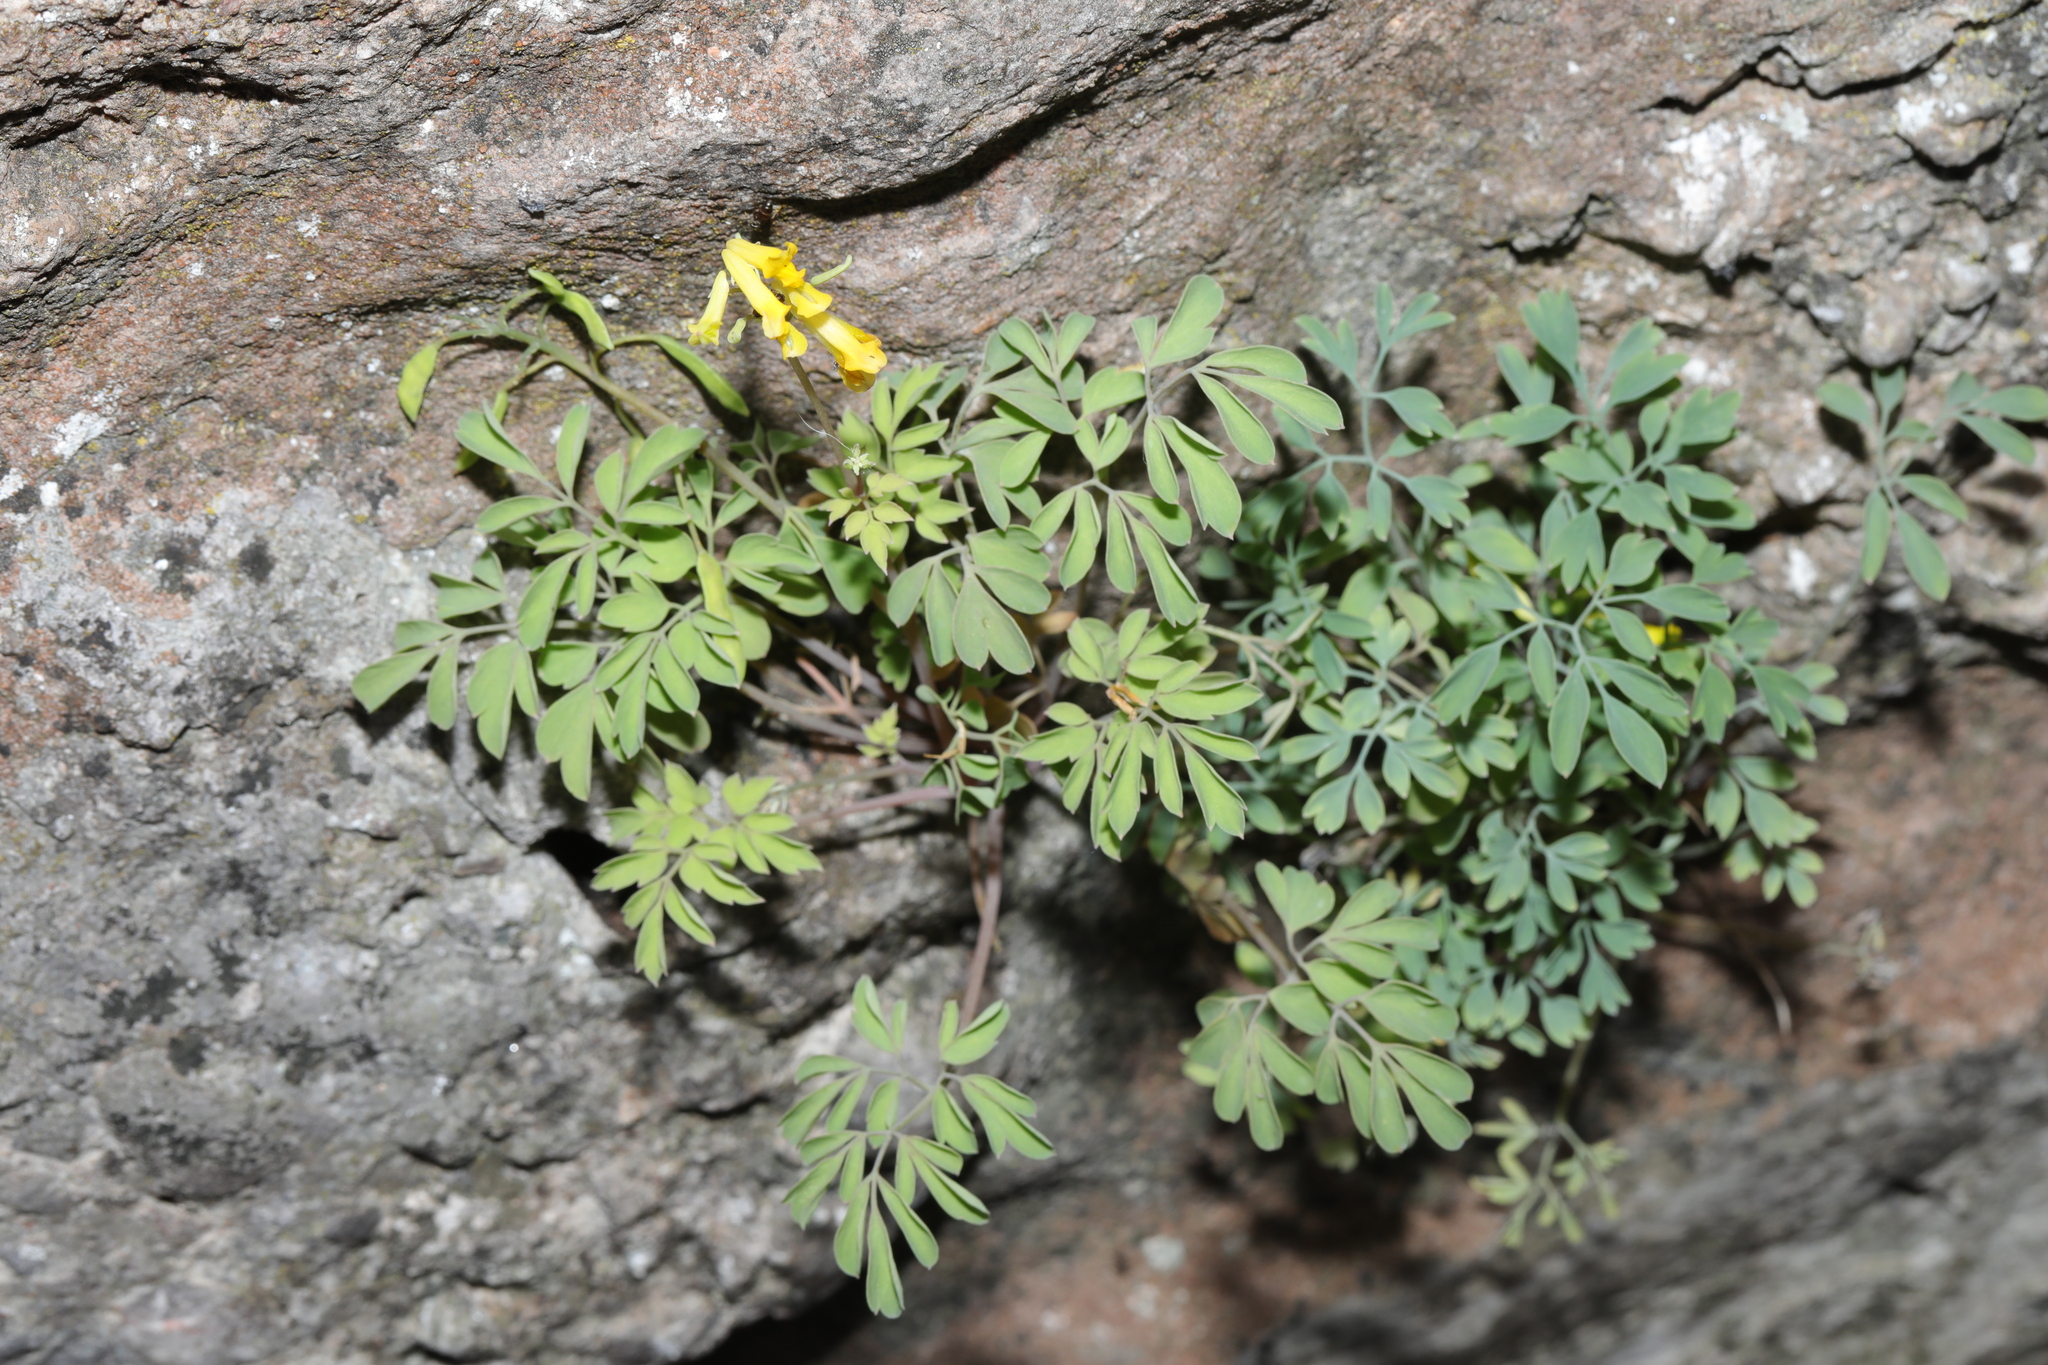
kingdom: Plantae
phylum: Tracheophyta
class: Magnoliopsida
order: Ranunculales
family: Papaveraceae
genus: Pseudofumaria
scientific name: Pseudofumaria lutea
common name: Yellow corydalis
